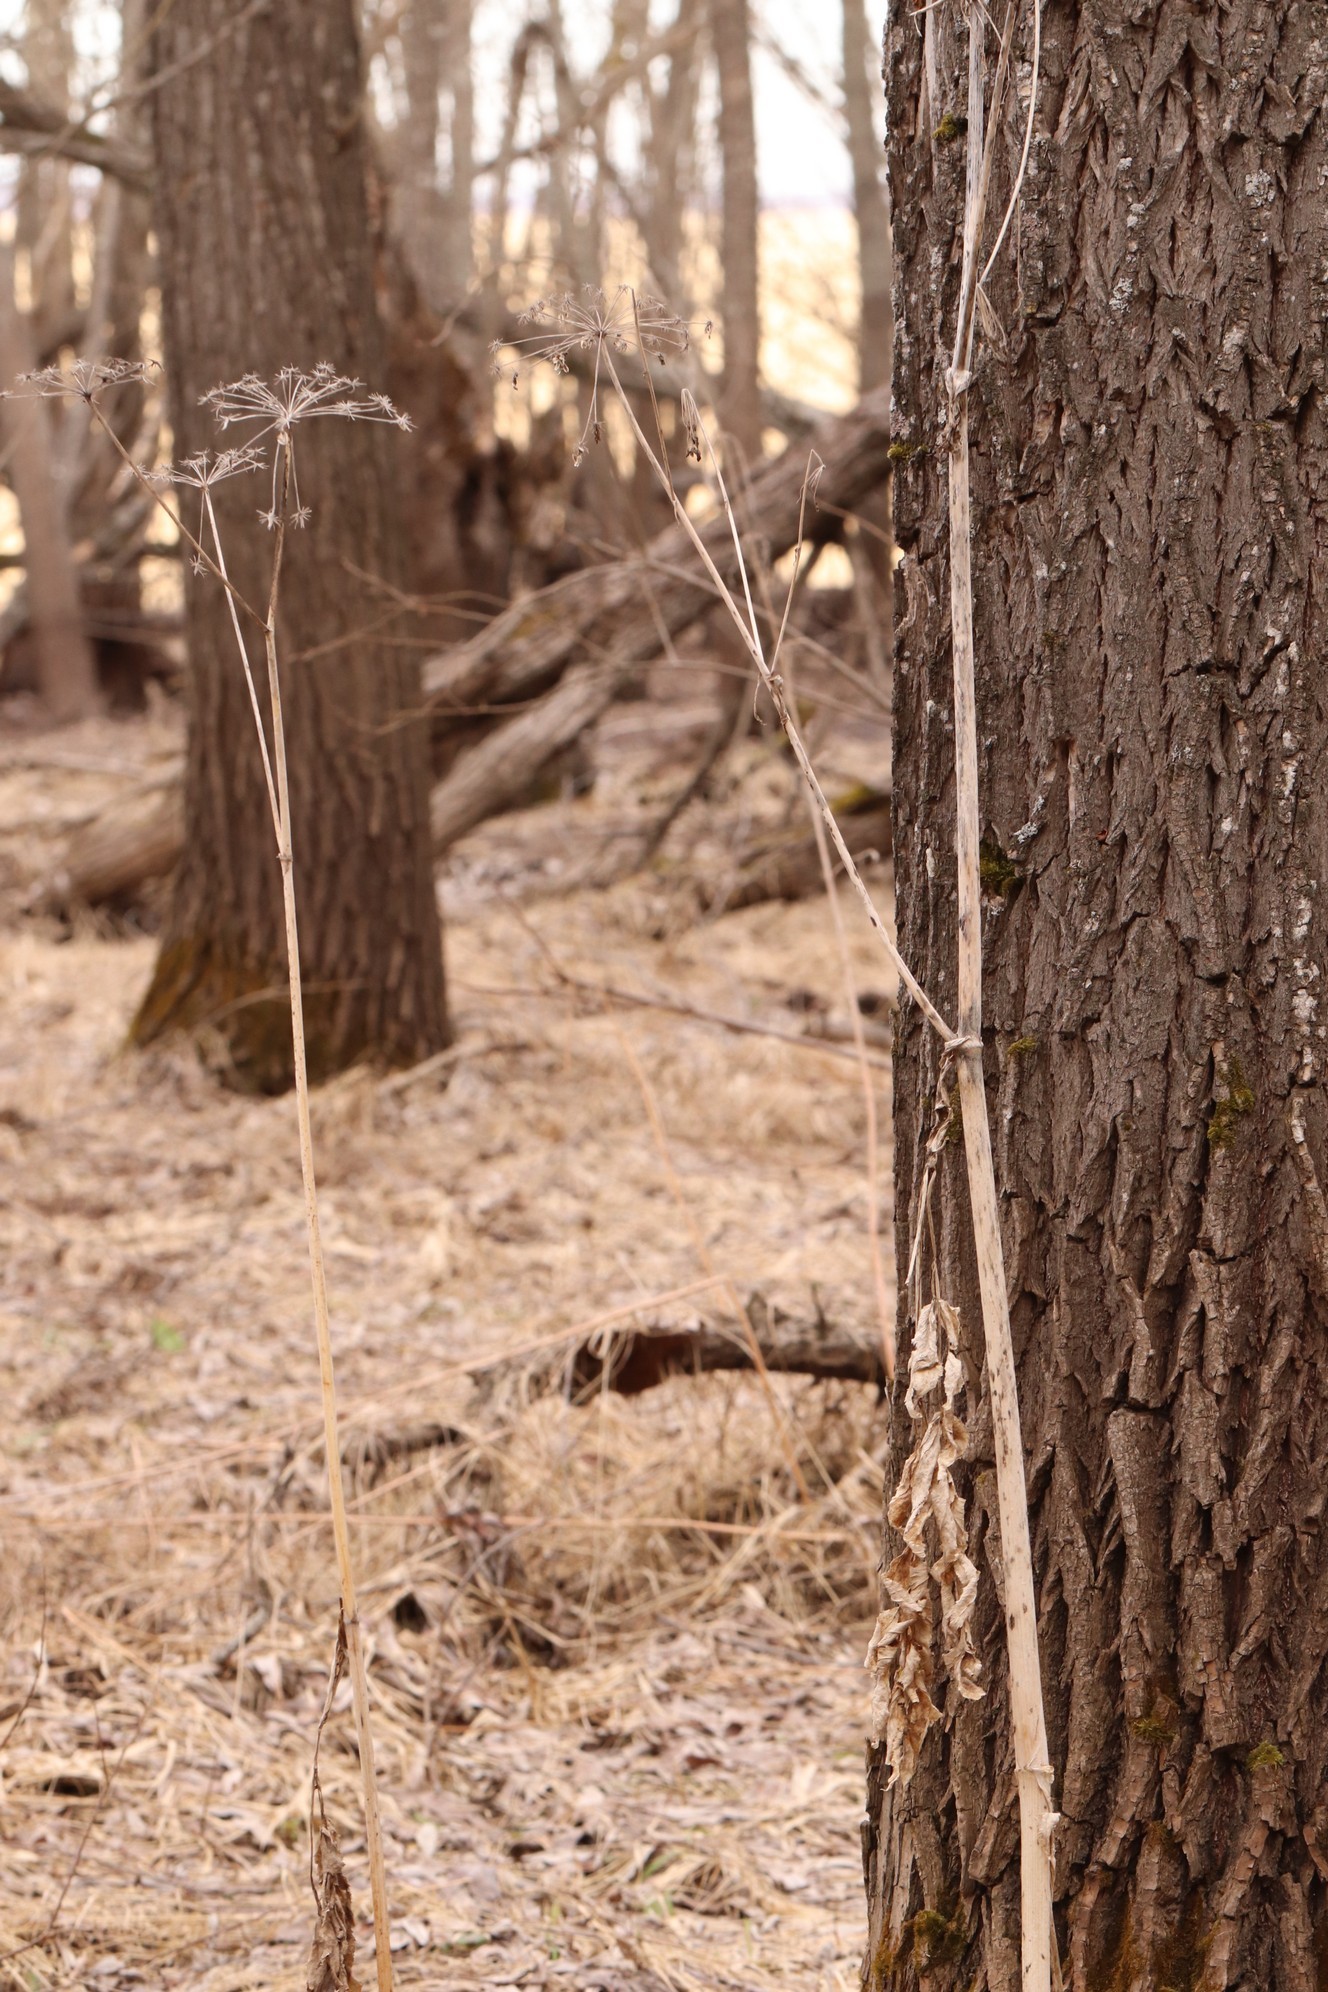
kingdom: Plantae
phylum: Tracheophyta
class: Magnoliopsida
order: Apiales
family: Apiaceae
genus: Angelica
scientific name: Angelica sylvestris
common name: Wild angelica
